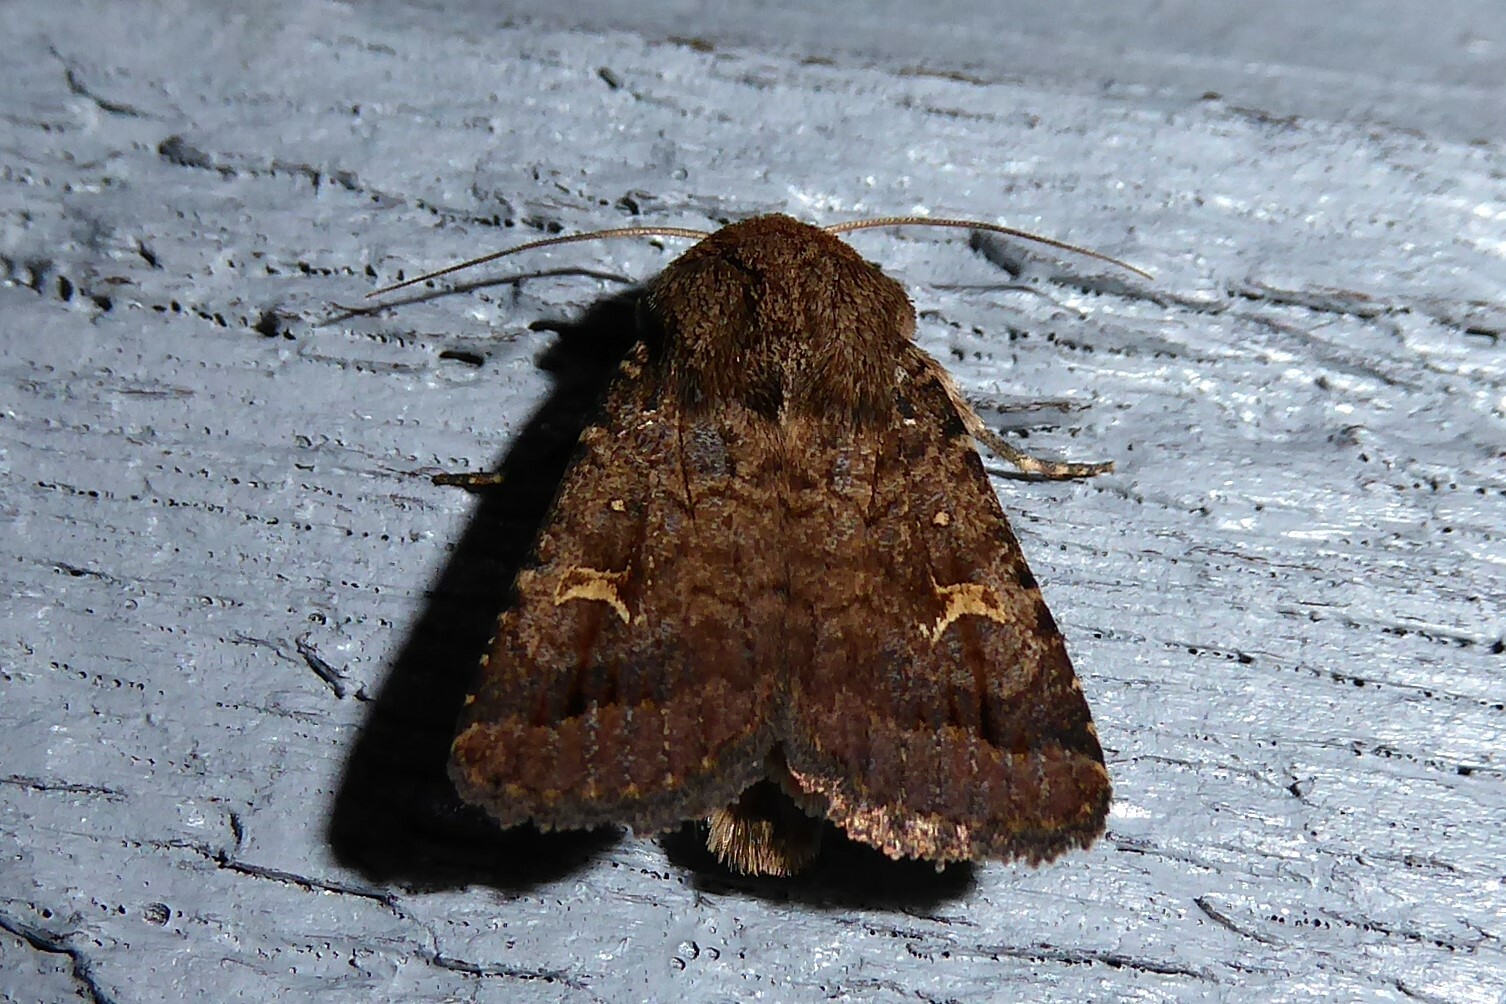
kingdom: Animalia
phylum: Arthropoda
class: Insecta
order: Lepidoptera
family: Noctuidae
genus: Proteuxoa
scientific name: Proteuxoa tetronycha
